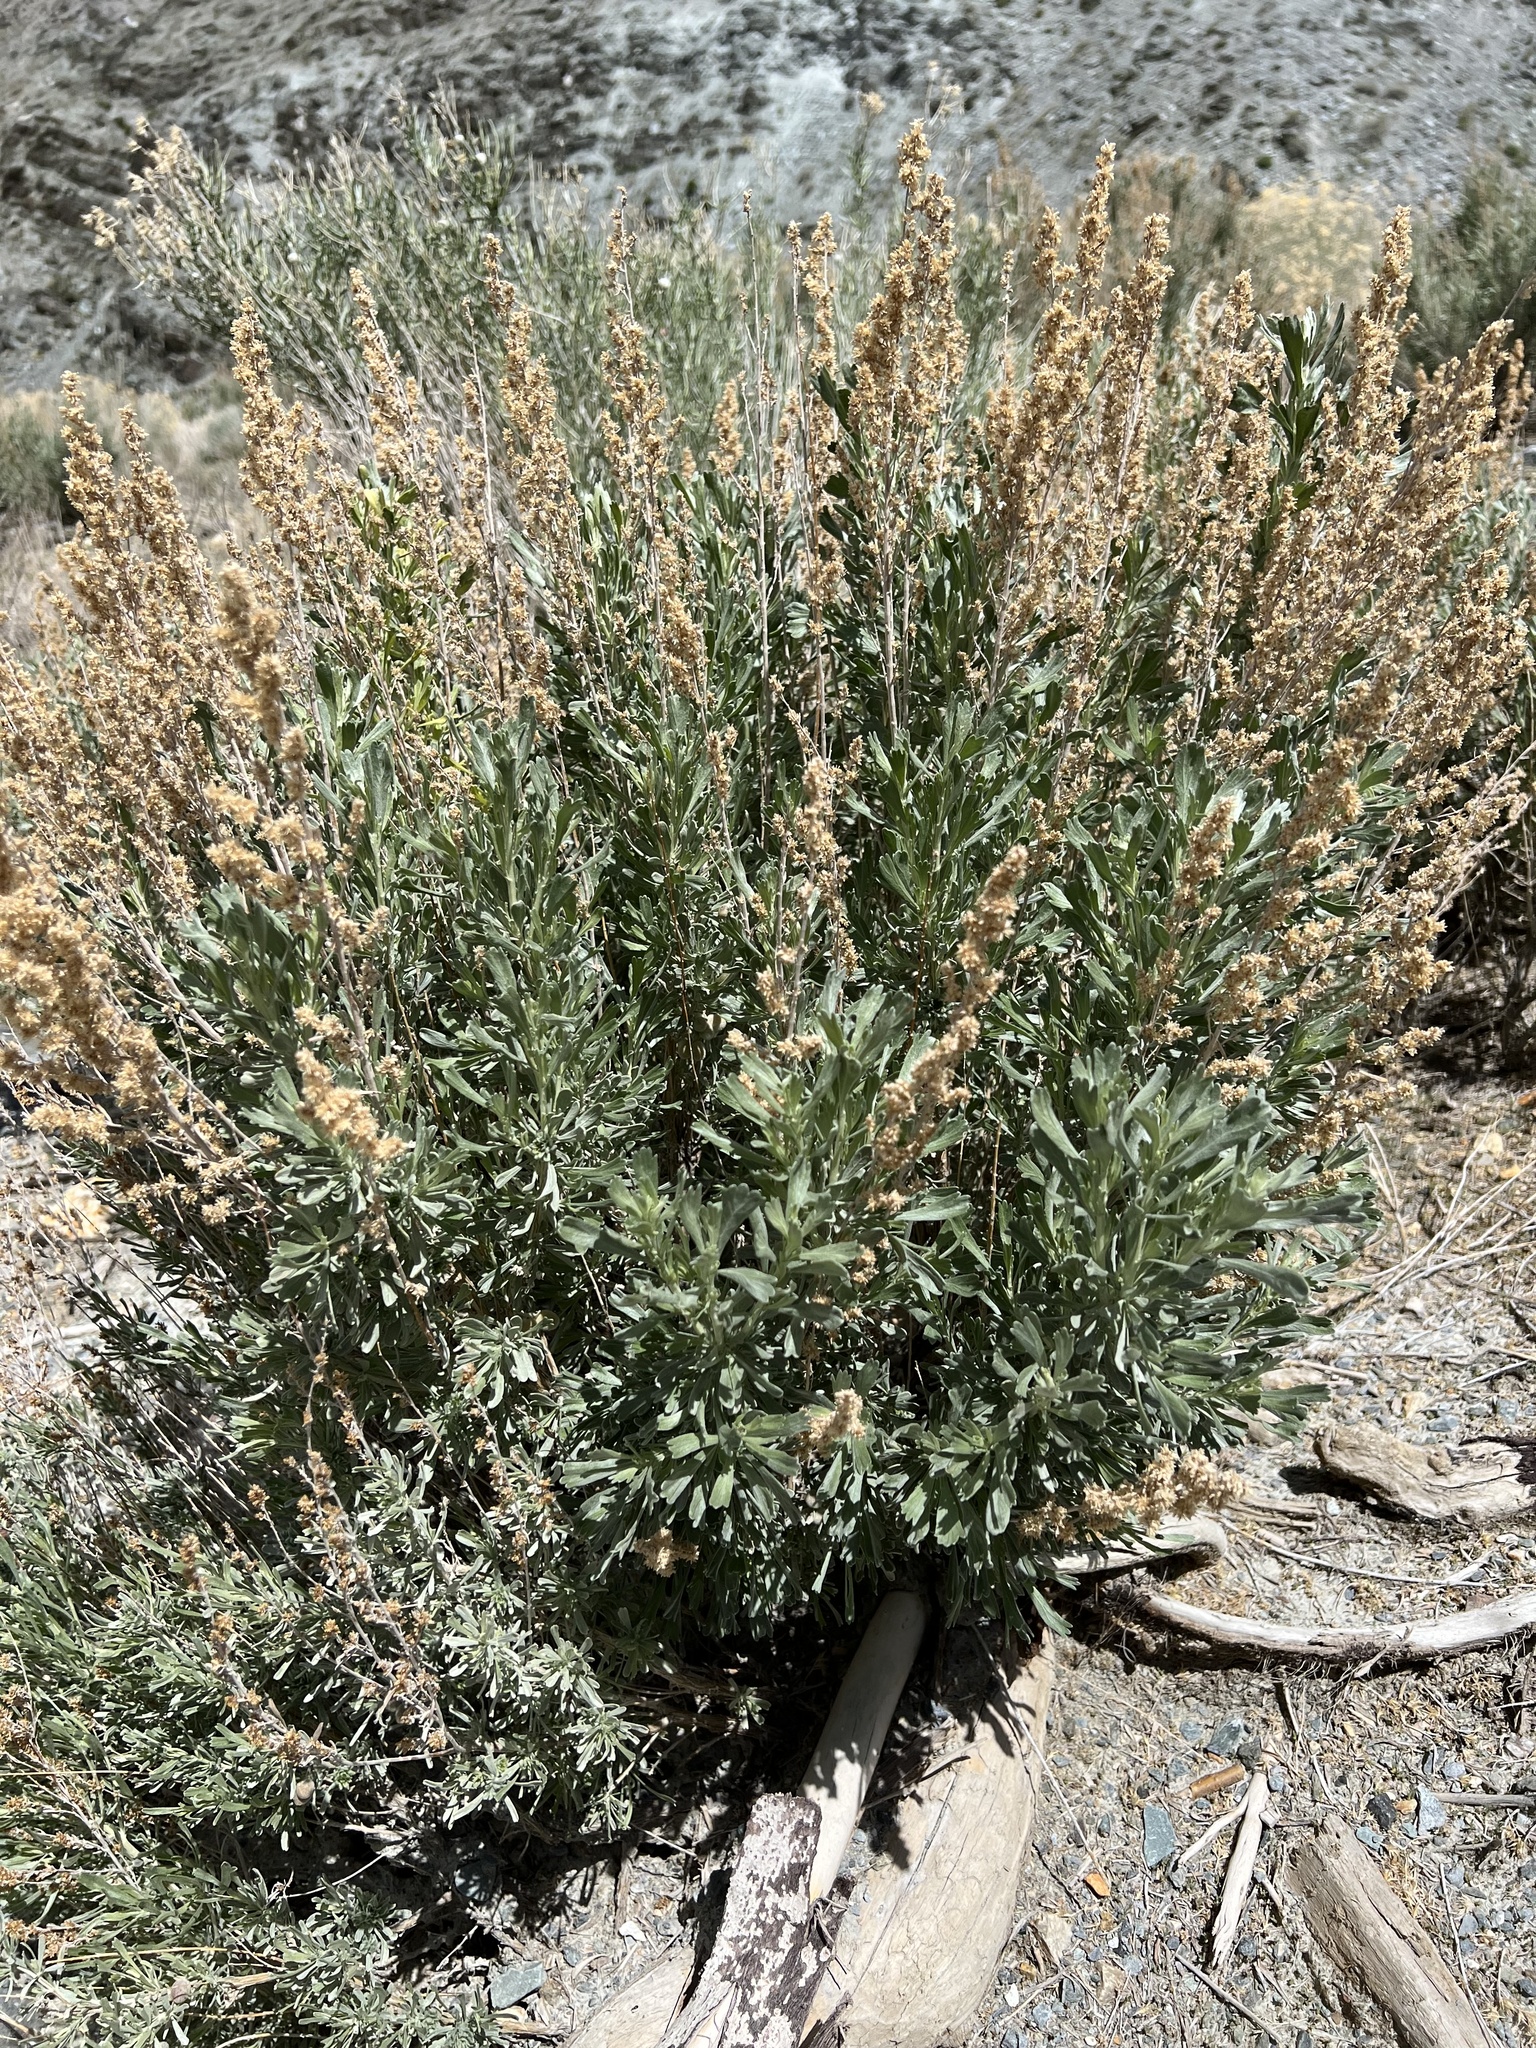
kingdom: Plantae
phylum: Tracheophyta
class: Magnoliopsida
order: Asterales
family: Asteraceae
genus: Artemisia
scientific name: Artemisia tridentata
